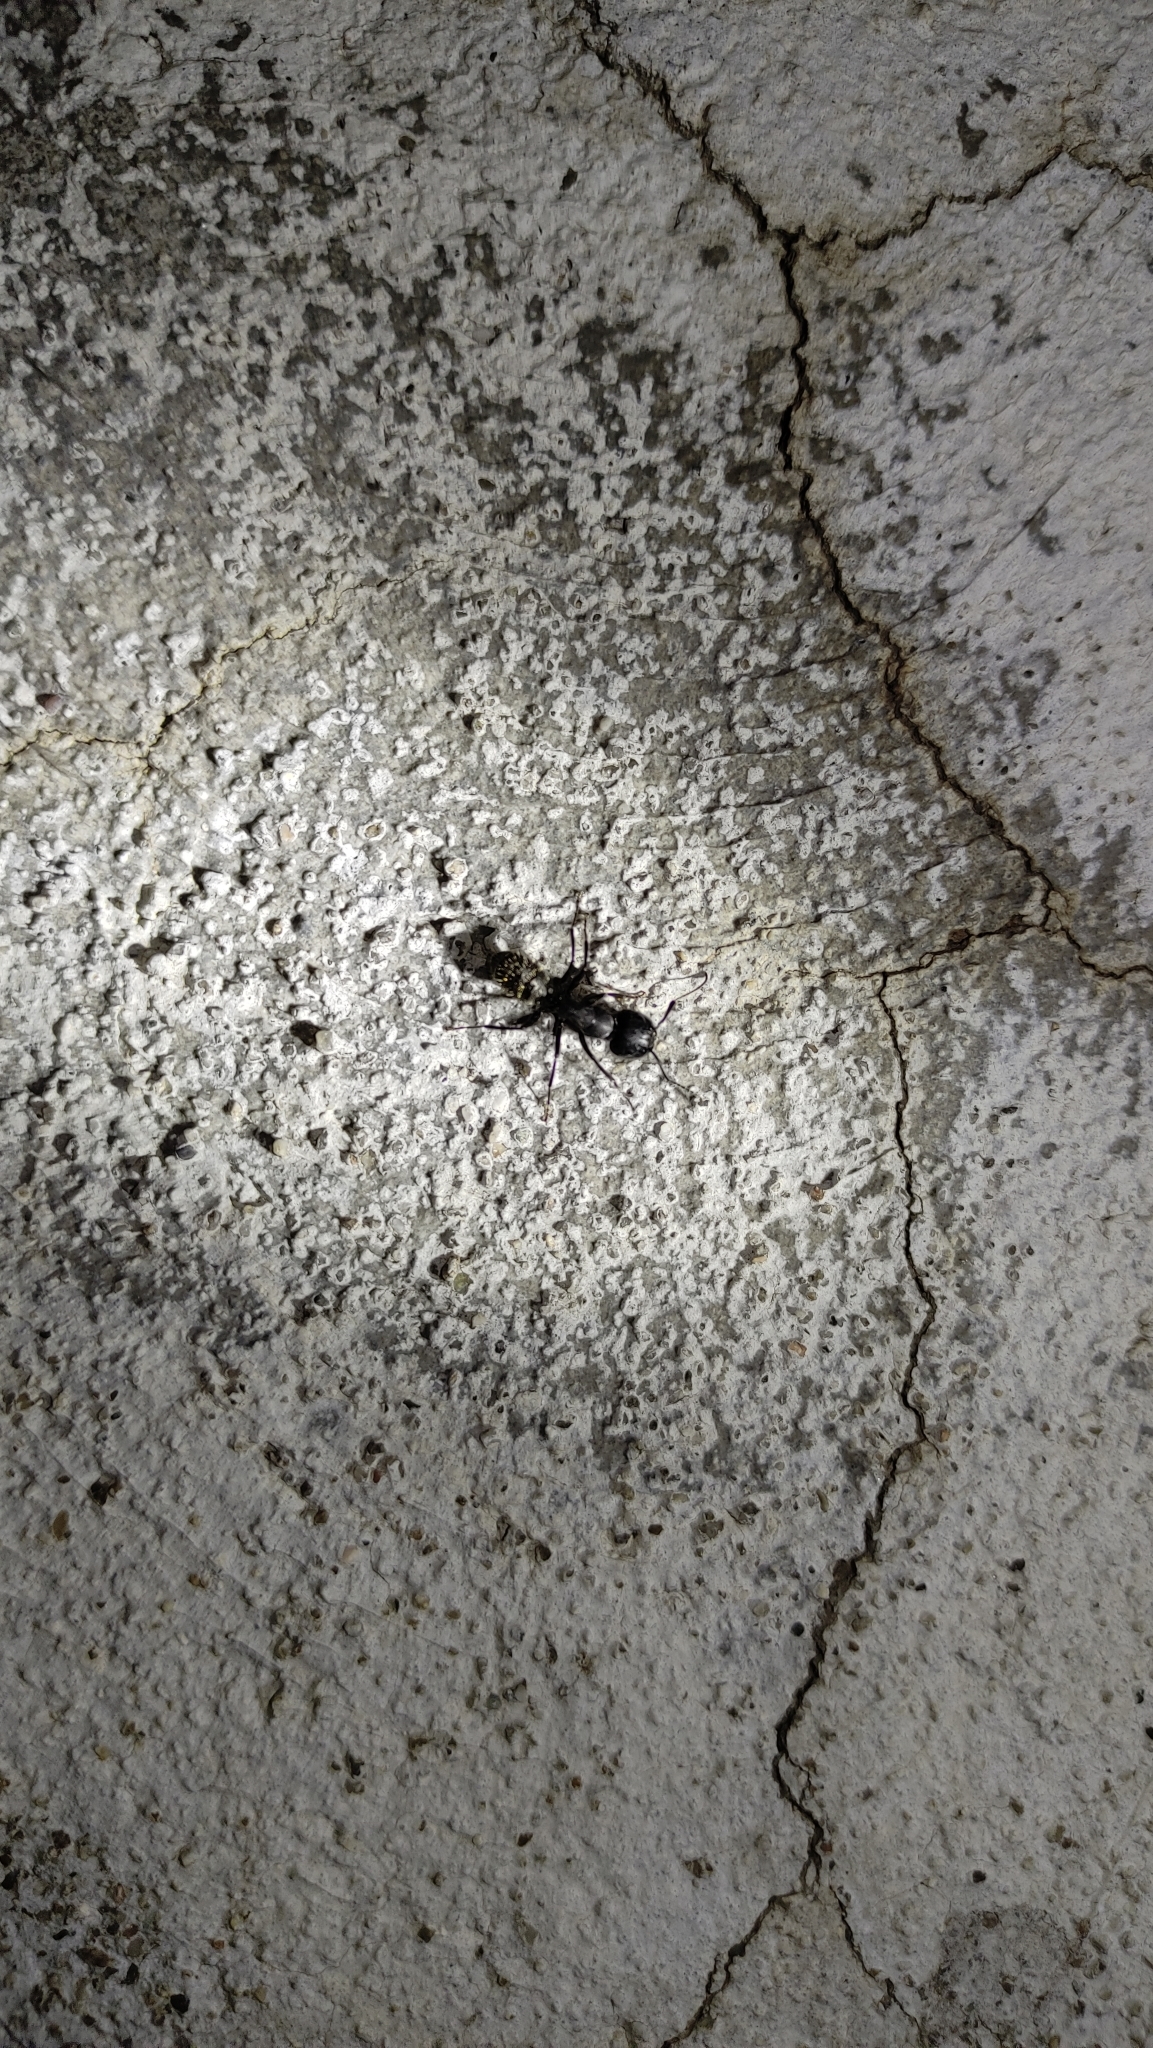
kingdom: Animalia
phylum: Arthropoda
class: Insecta
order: Hymenoptera
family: Formicidae
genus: Camponotus
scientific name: Camponotus vagus
